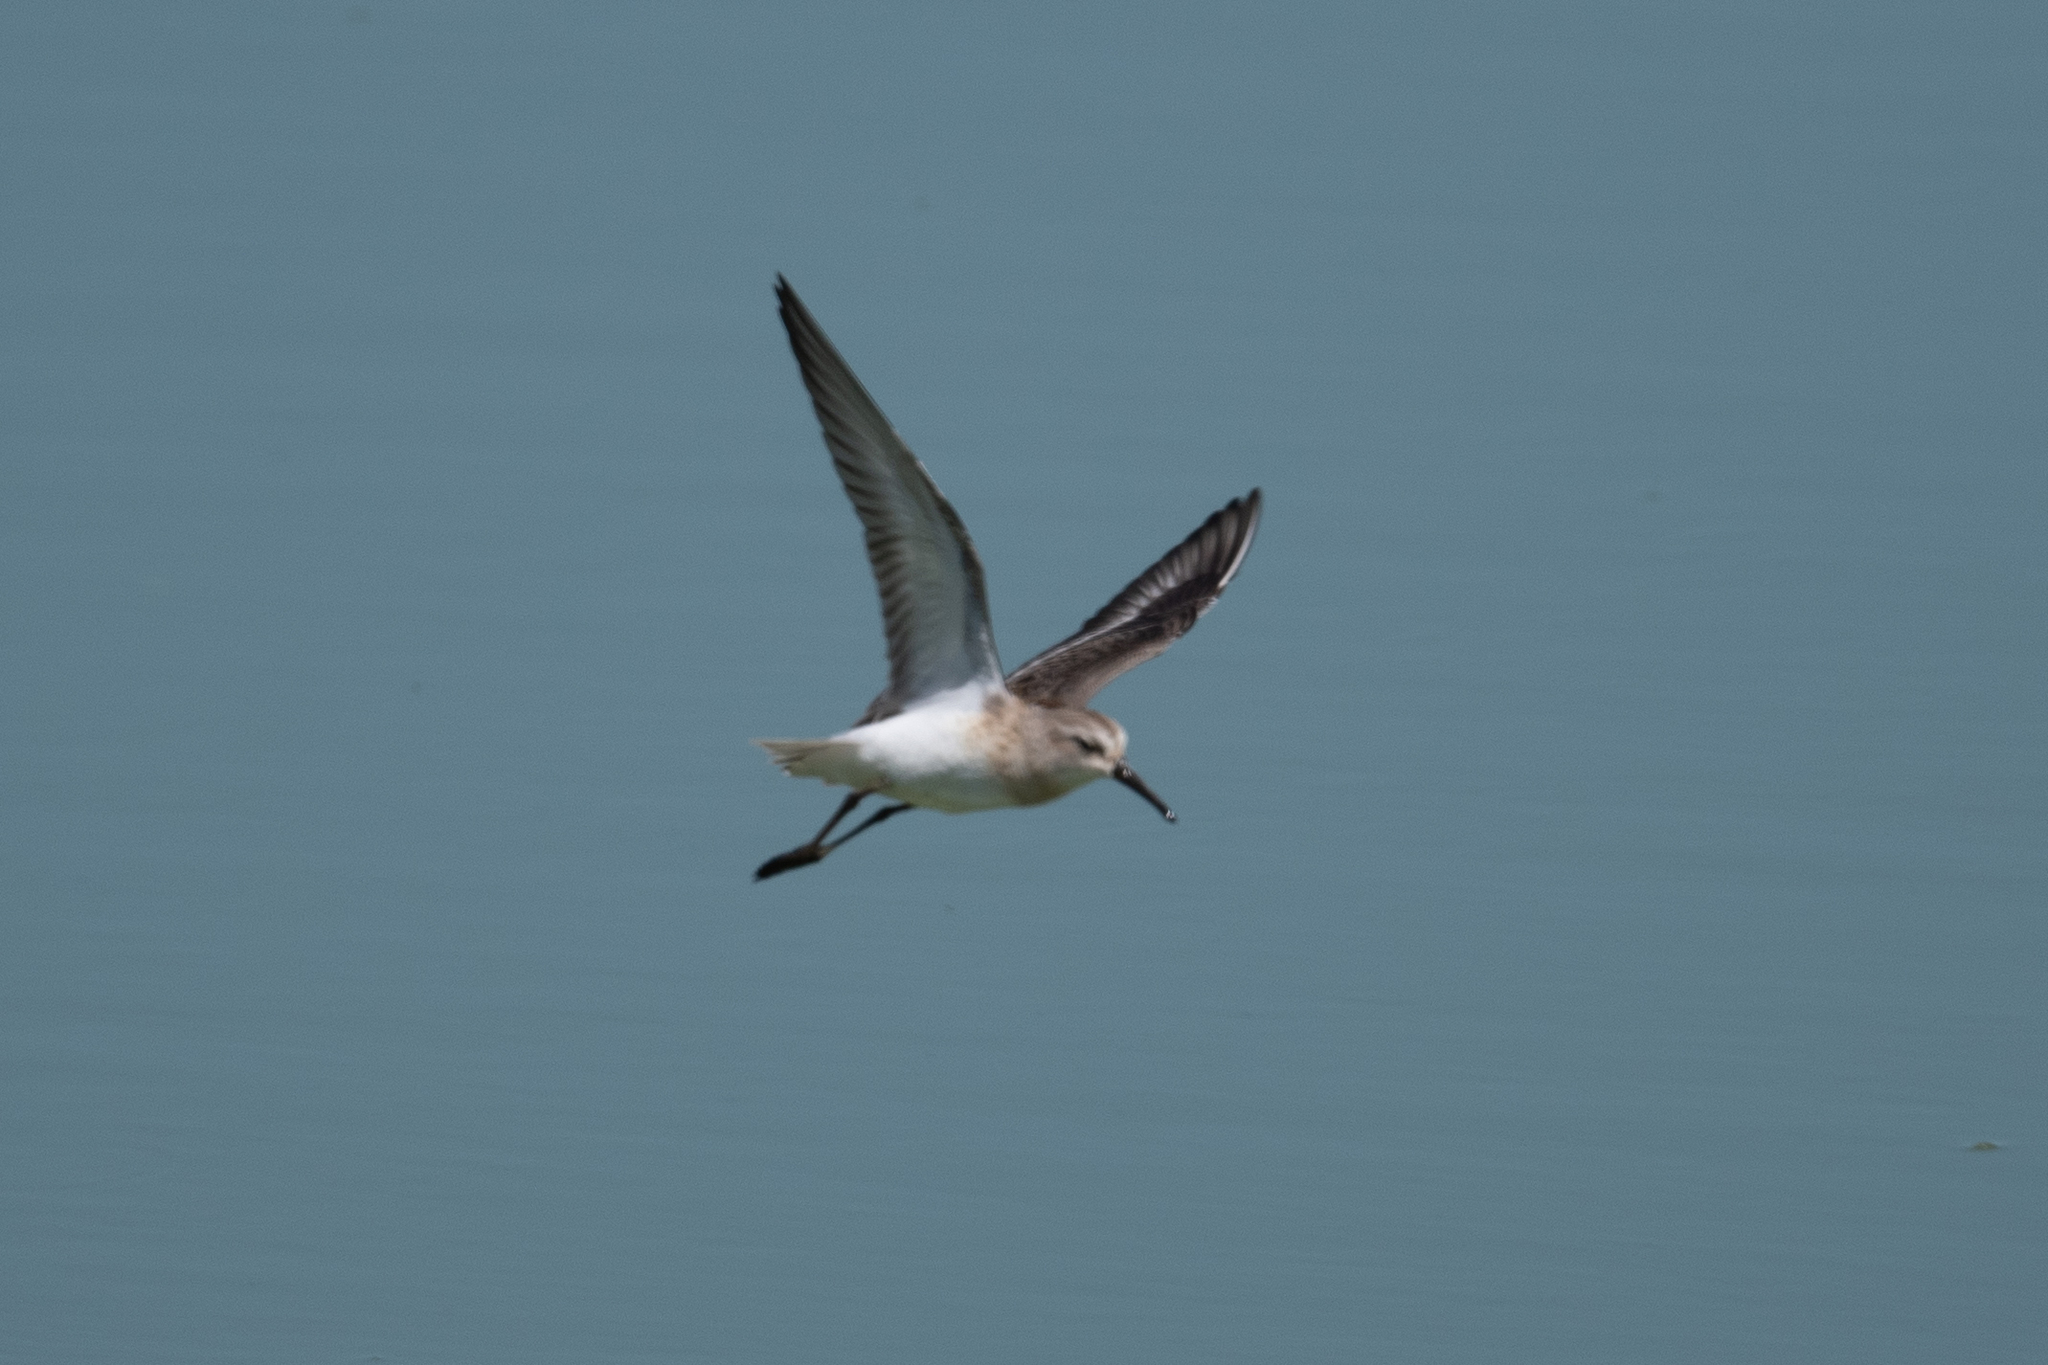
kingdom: Animalia
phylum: Chordata
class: Aves
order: Charadriiformes
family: Scolopacidae
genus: Calidris
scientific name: Calidris mauri
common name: Western sandpiper
